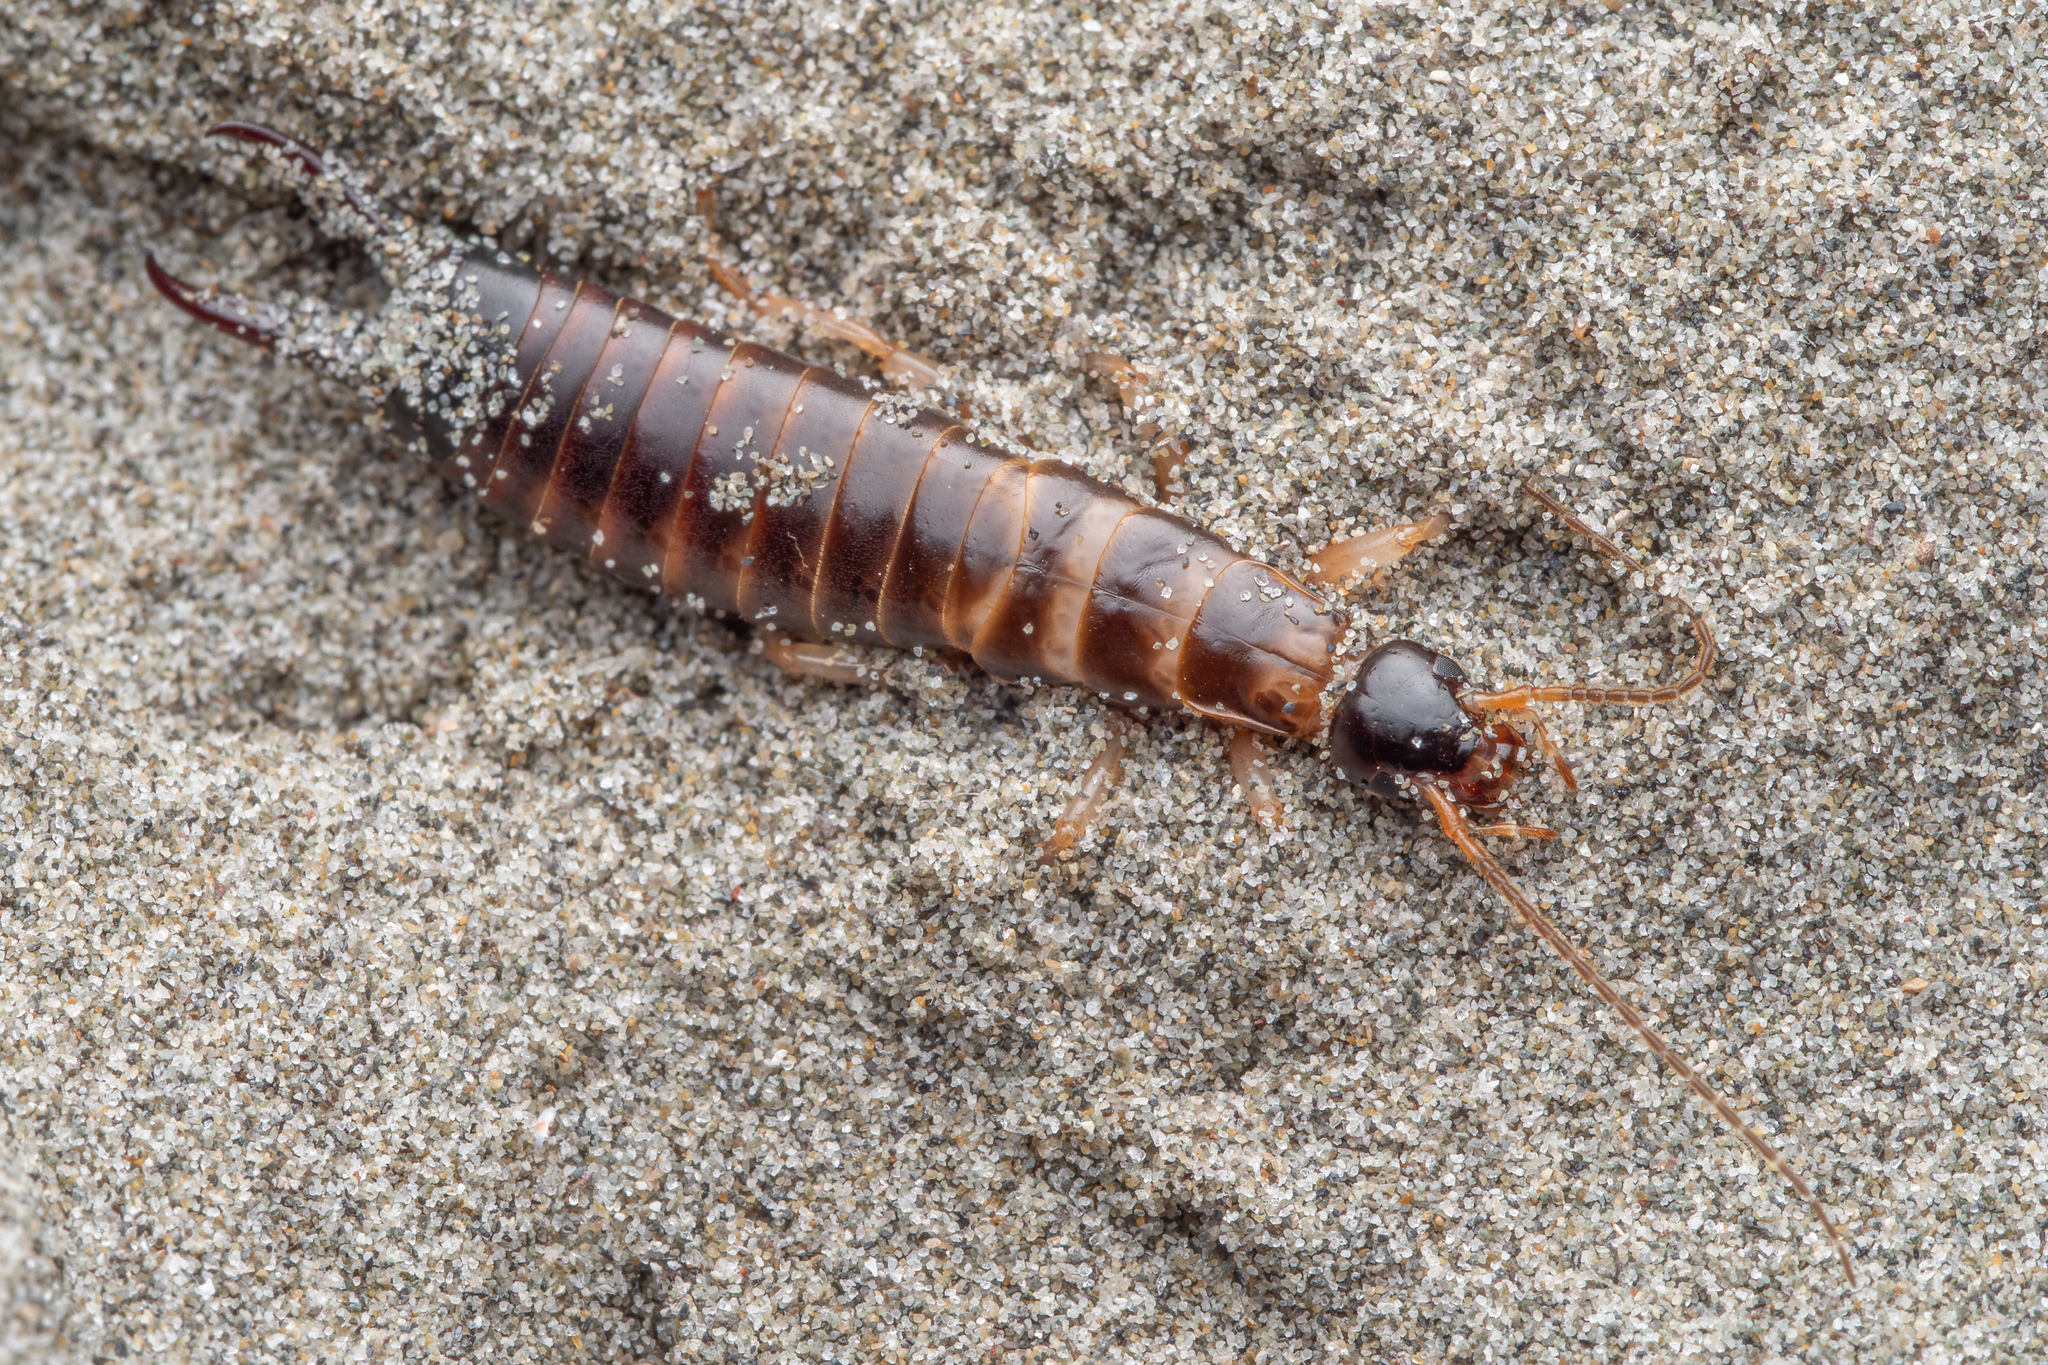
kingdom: Animalia
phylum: Arthropoda
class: Insecta
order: Dermaptera
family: Anisolabididae
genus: Anisolabis
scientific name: Anisolabis littorea
